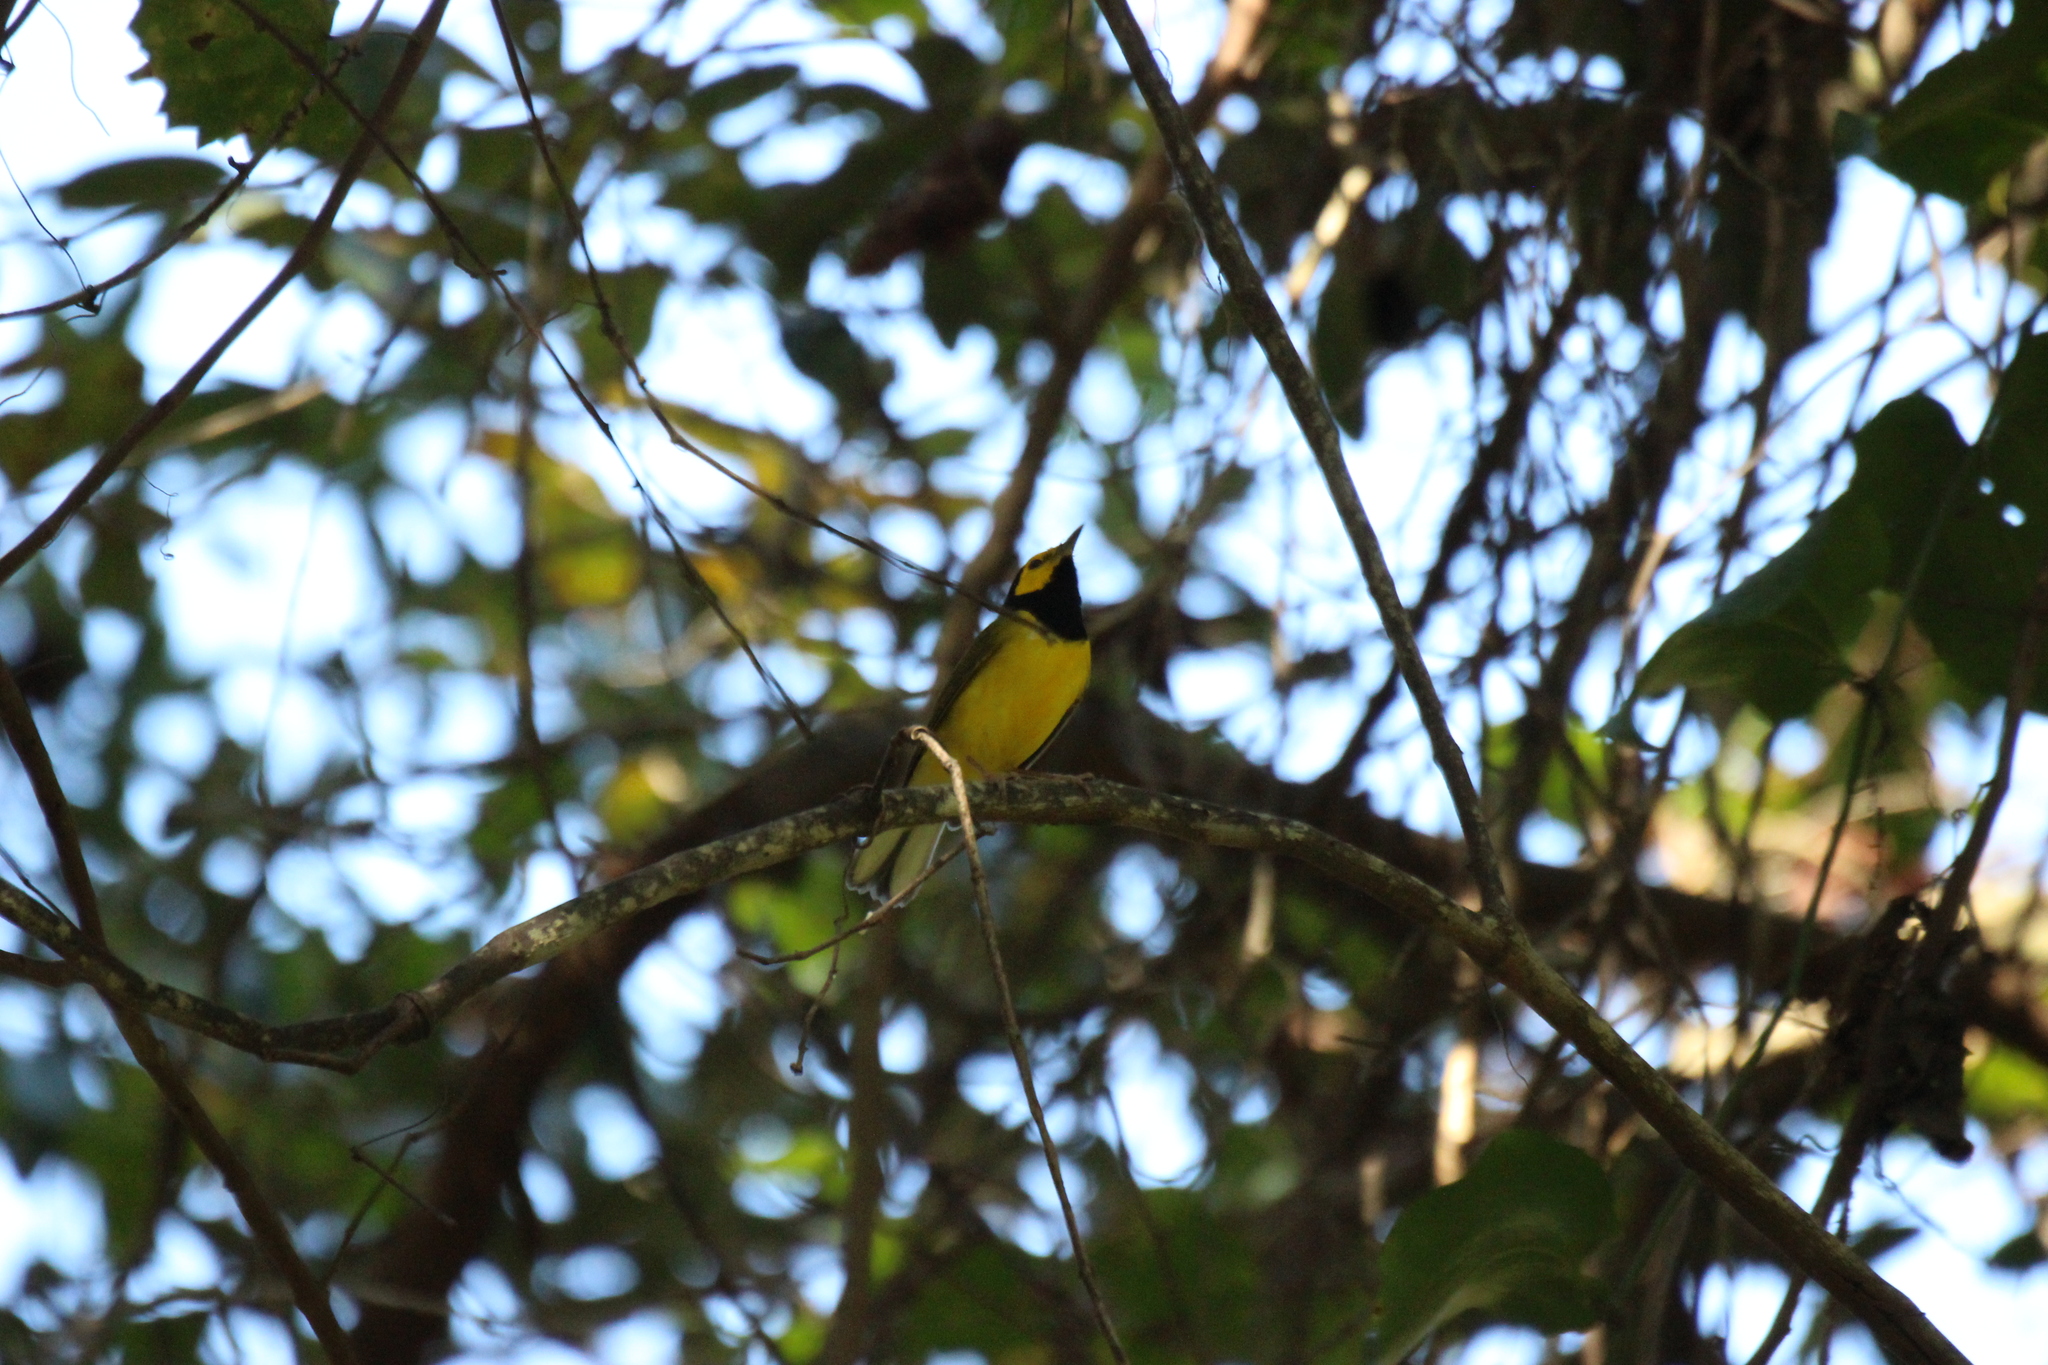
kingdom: Animalia
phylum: Chordata
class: Aves
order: Passeriformes
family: Parulidae
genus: Setophaga
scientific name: Setophaga citrina
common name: Hooded warbler
